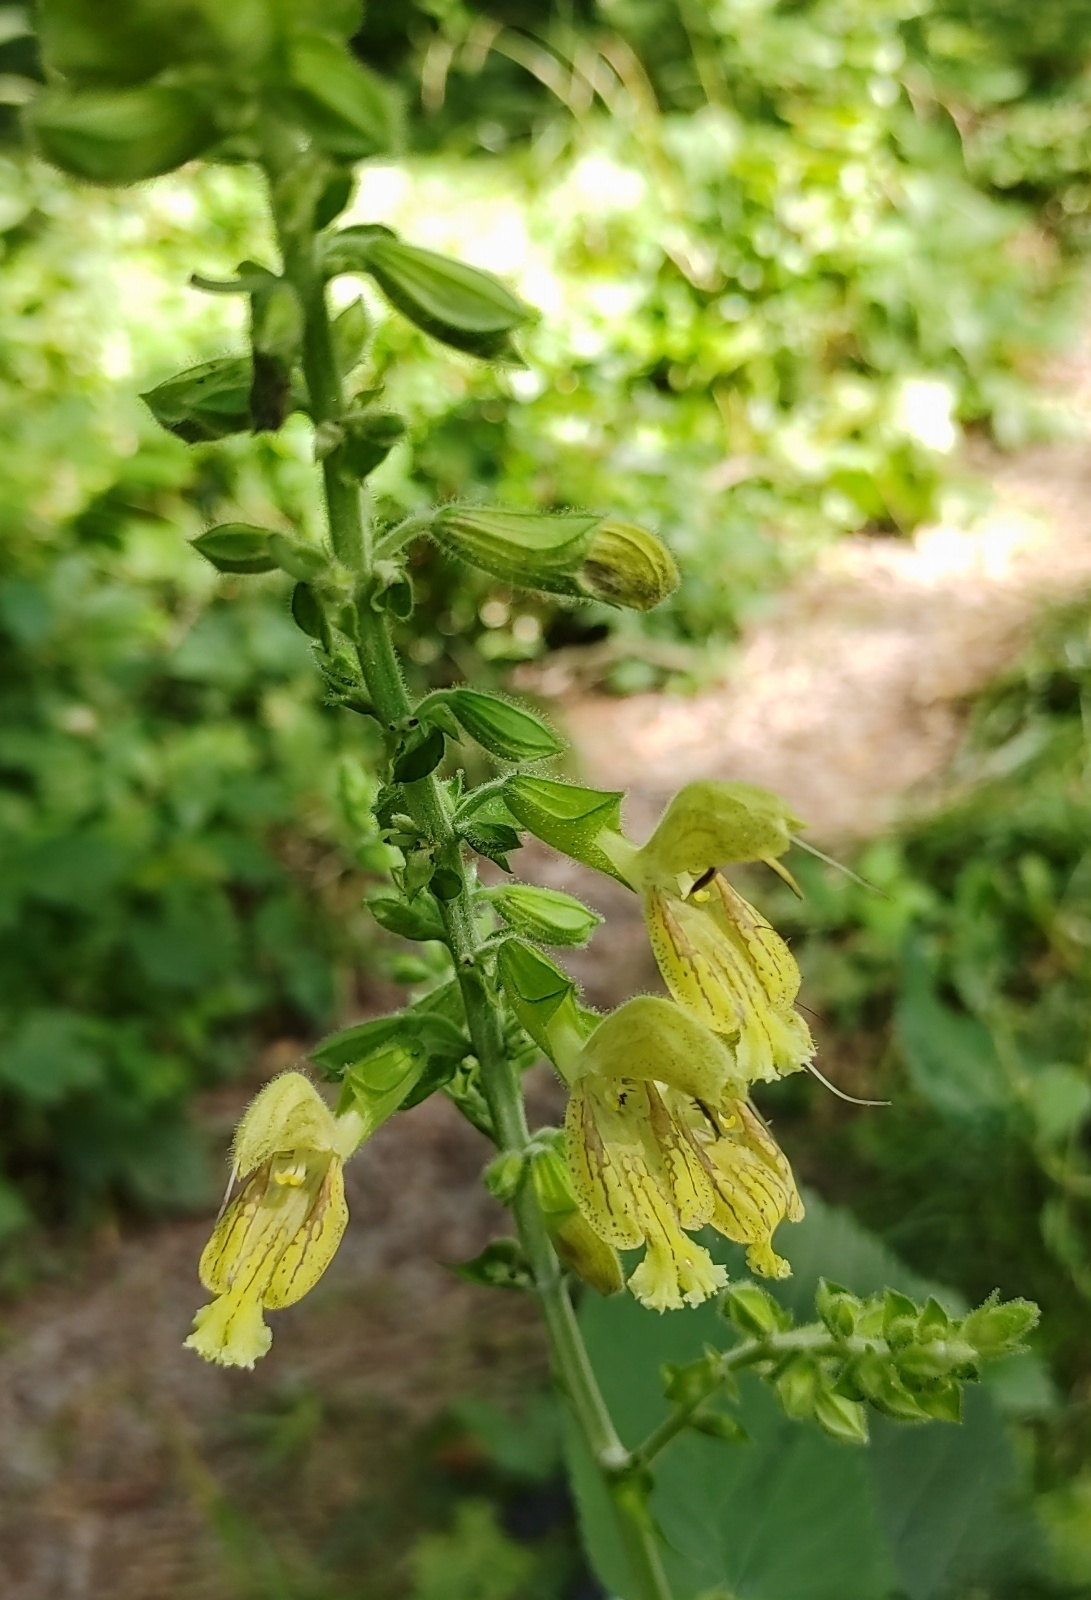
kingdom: Plantae
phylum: Tracheophyta
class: Magnoliopsida
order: Lamiales
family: Lamiaceae
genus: Salvia
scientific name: Salvia glutinosa
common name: Sticky clary
